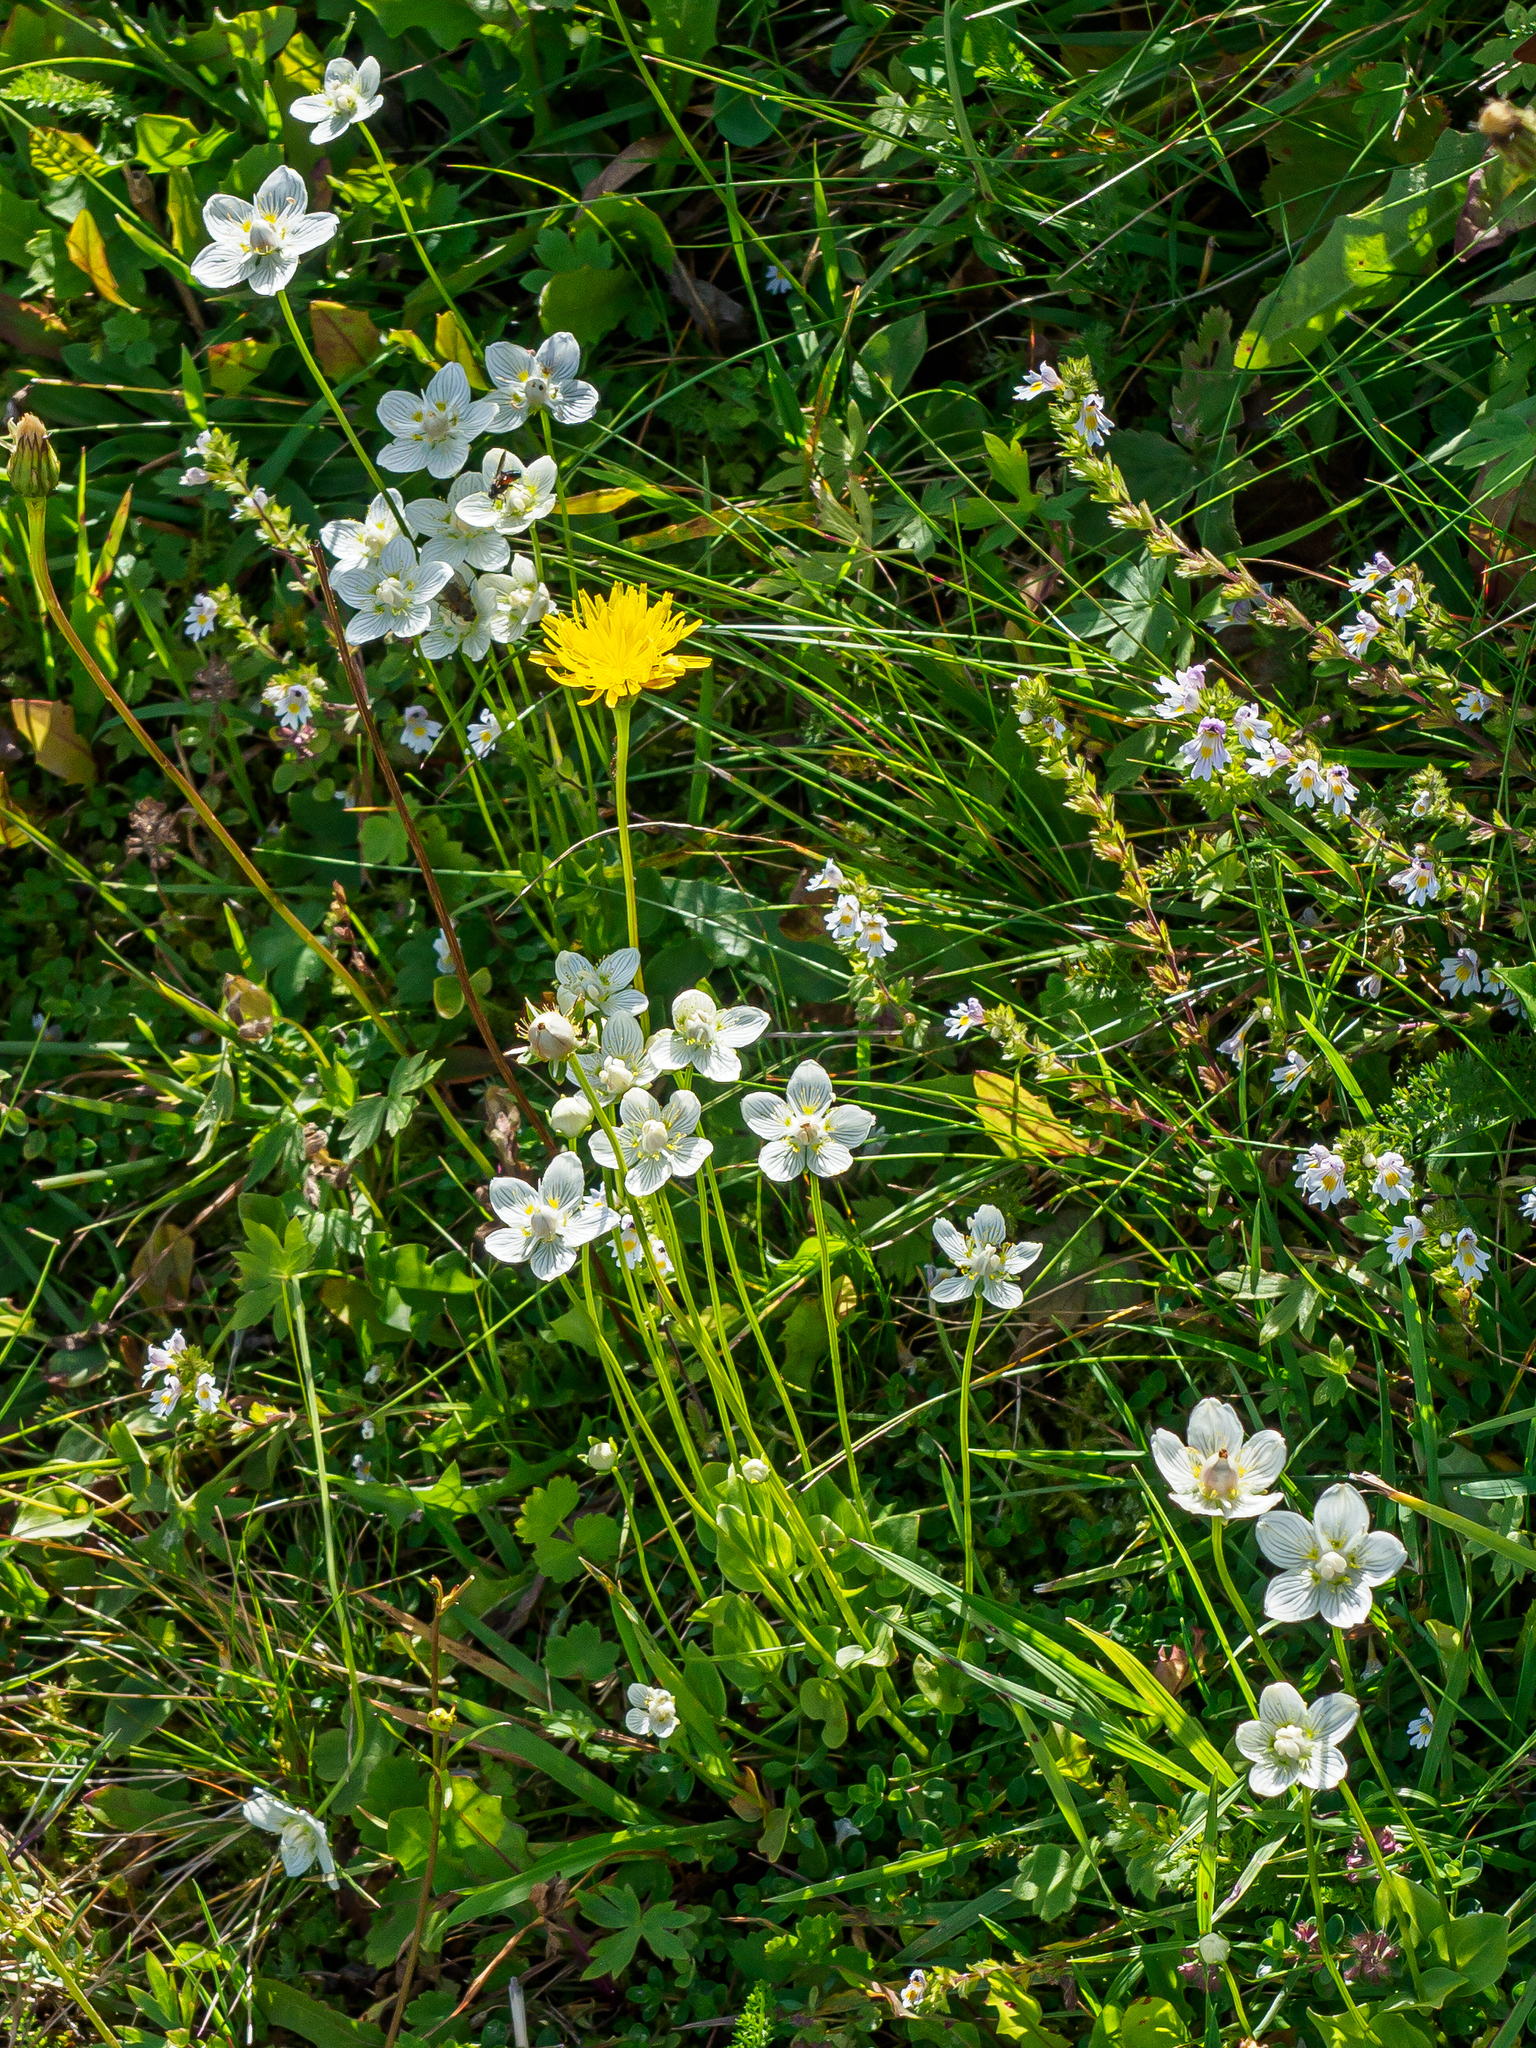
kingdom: Plantae
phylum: Tracheophyta
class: Magnoliopsida
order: Celastrales
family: Parnassiaceae
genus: Parnassia
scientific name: Parnassia palustris
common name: Grass-of-parnassus
